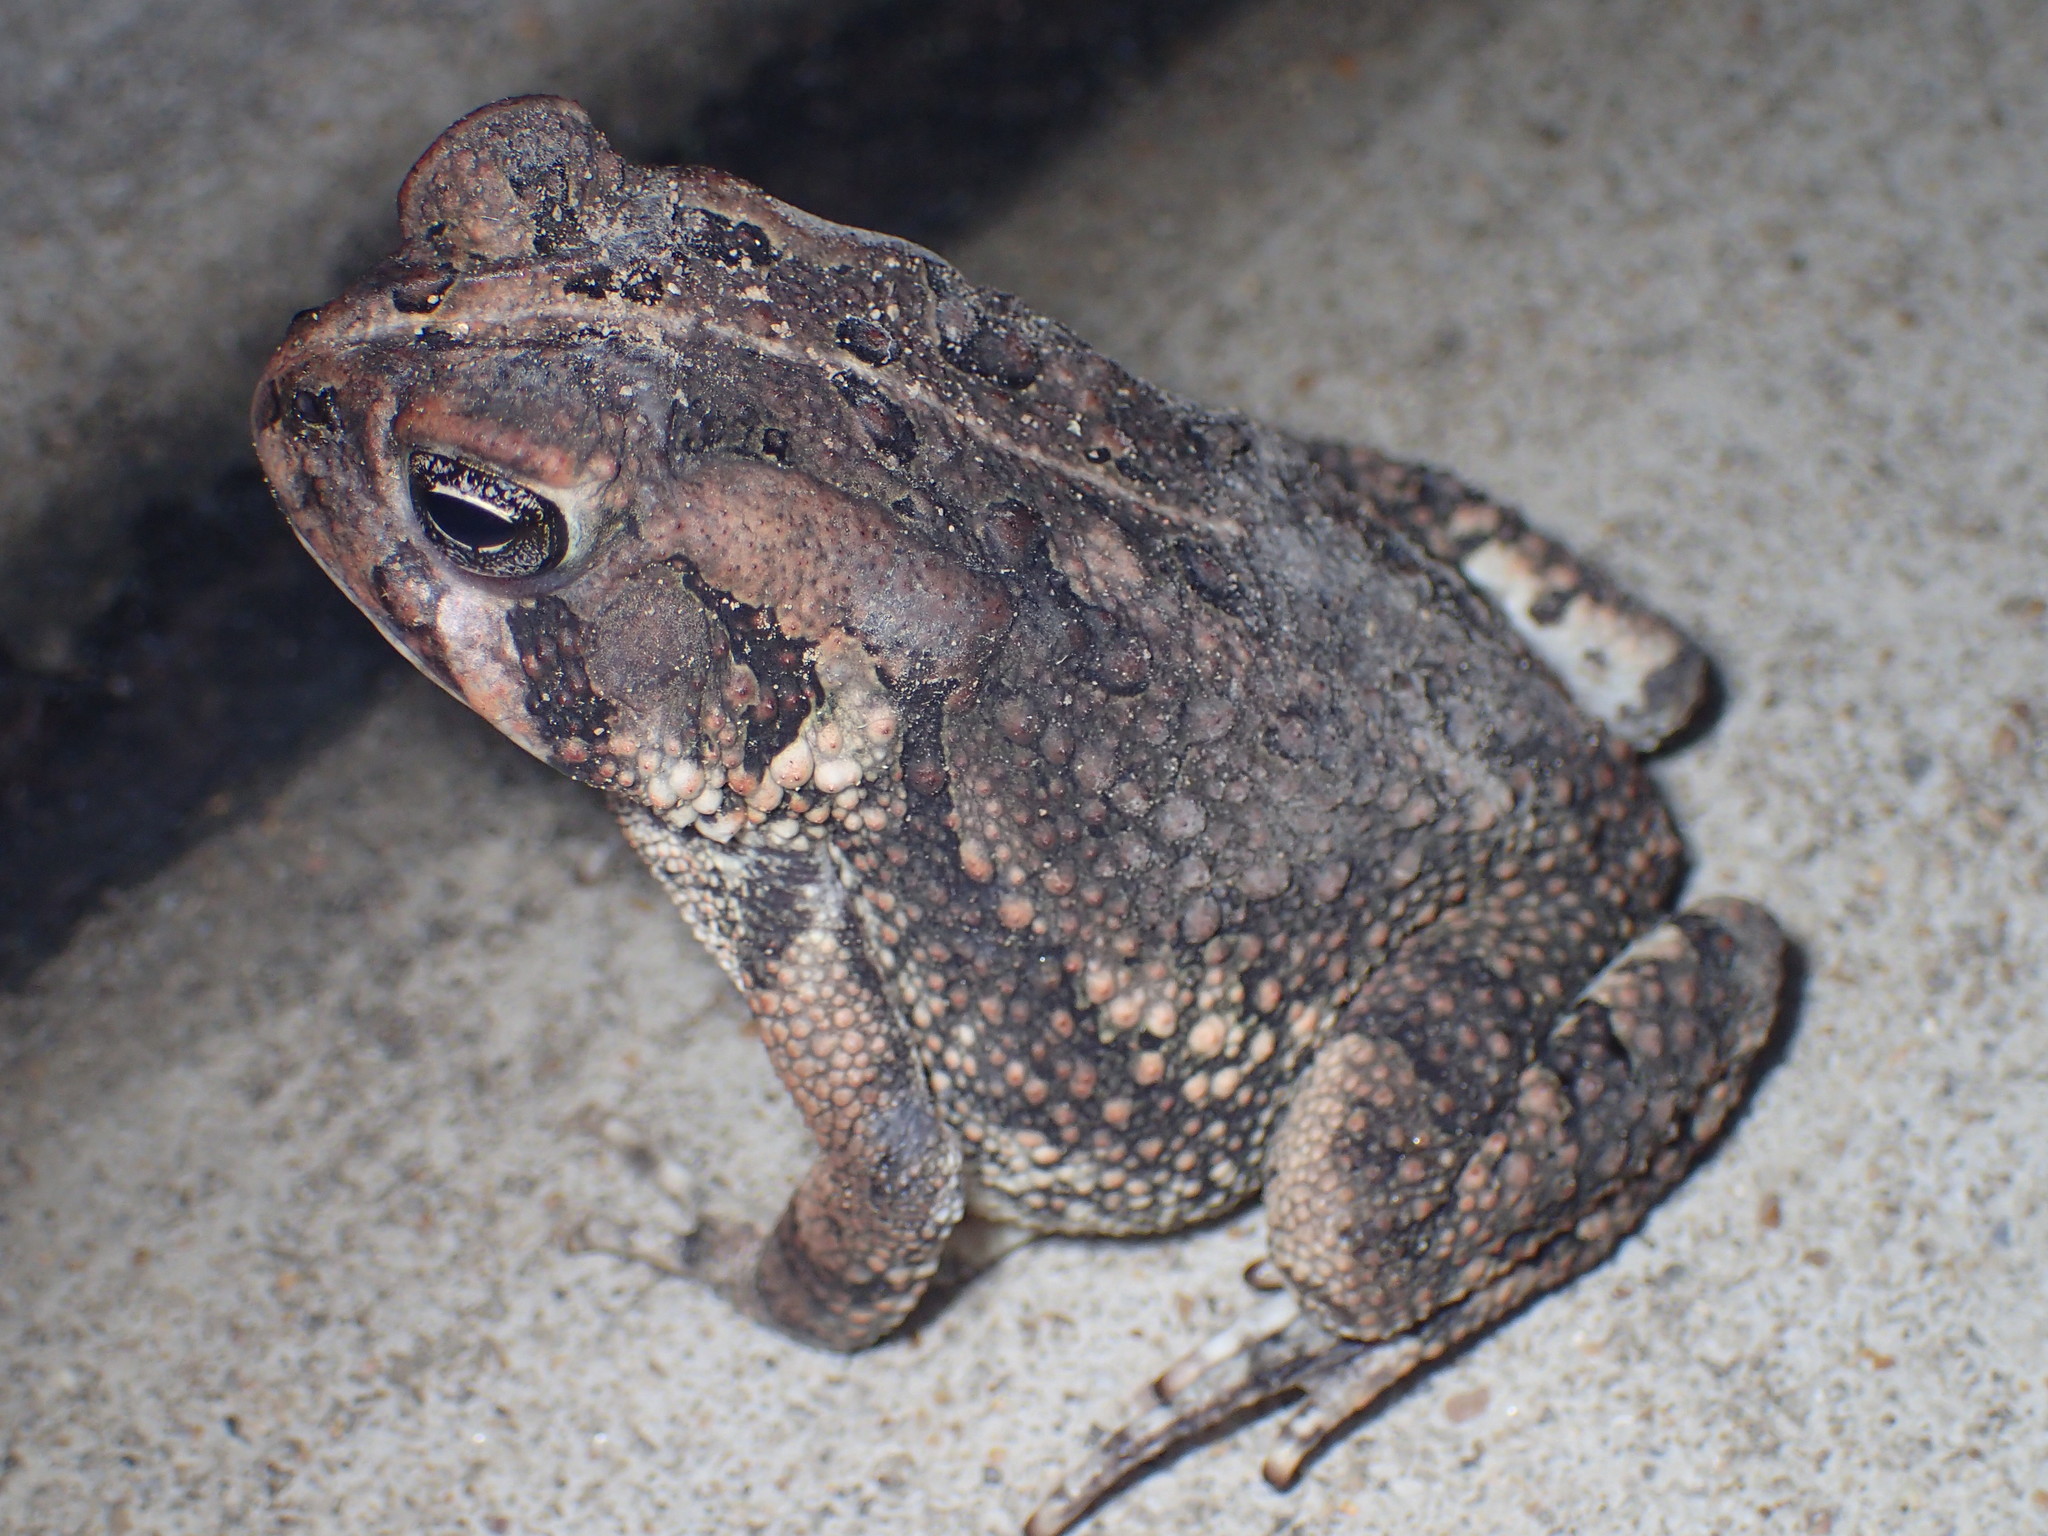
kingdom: Animalia
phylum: Chordata
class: Amphibia
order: Anura
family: Bufonidae
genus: Anaxyrus
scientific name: Anaxyrus fowleri
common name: Fowler's toad
